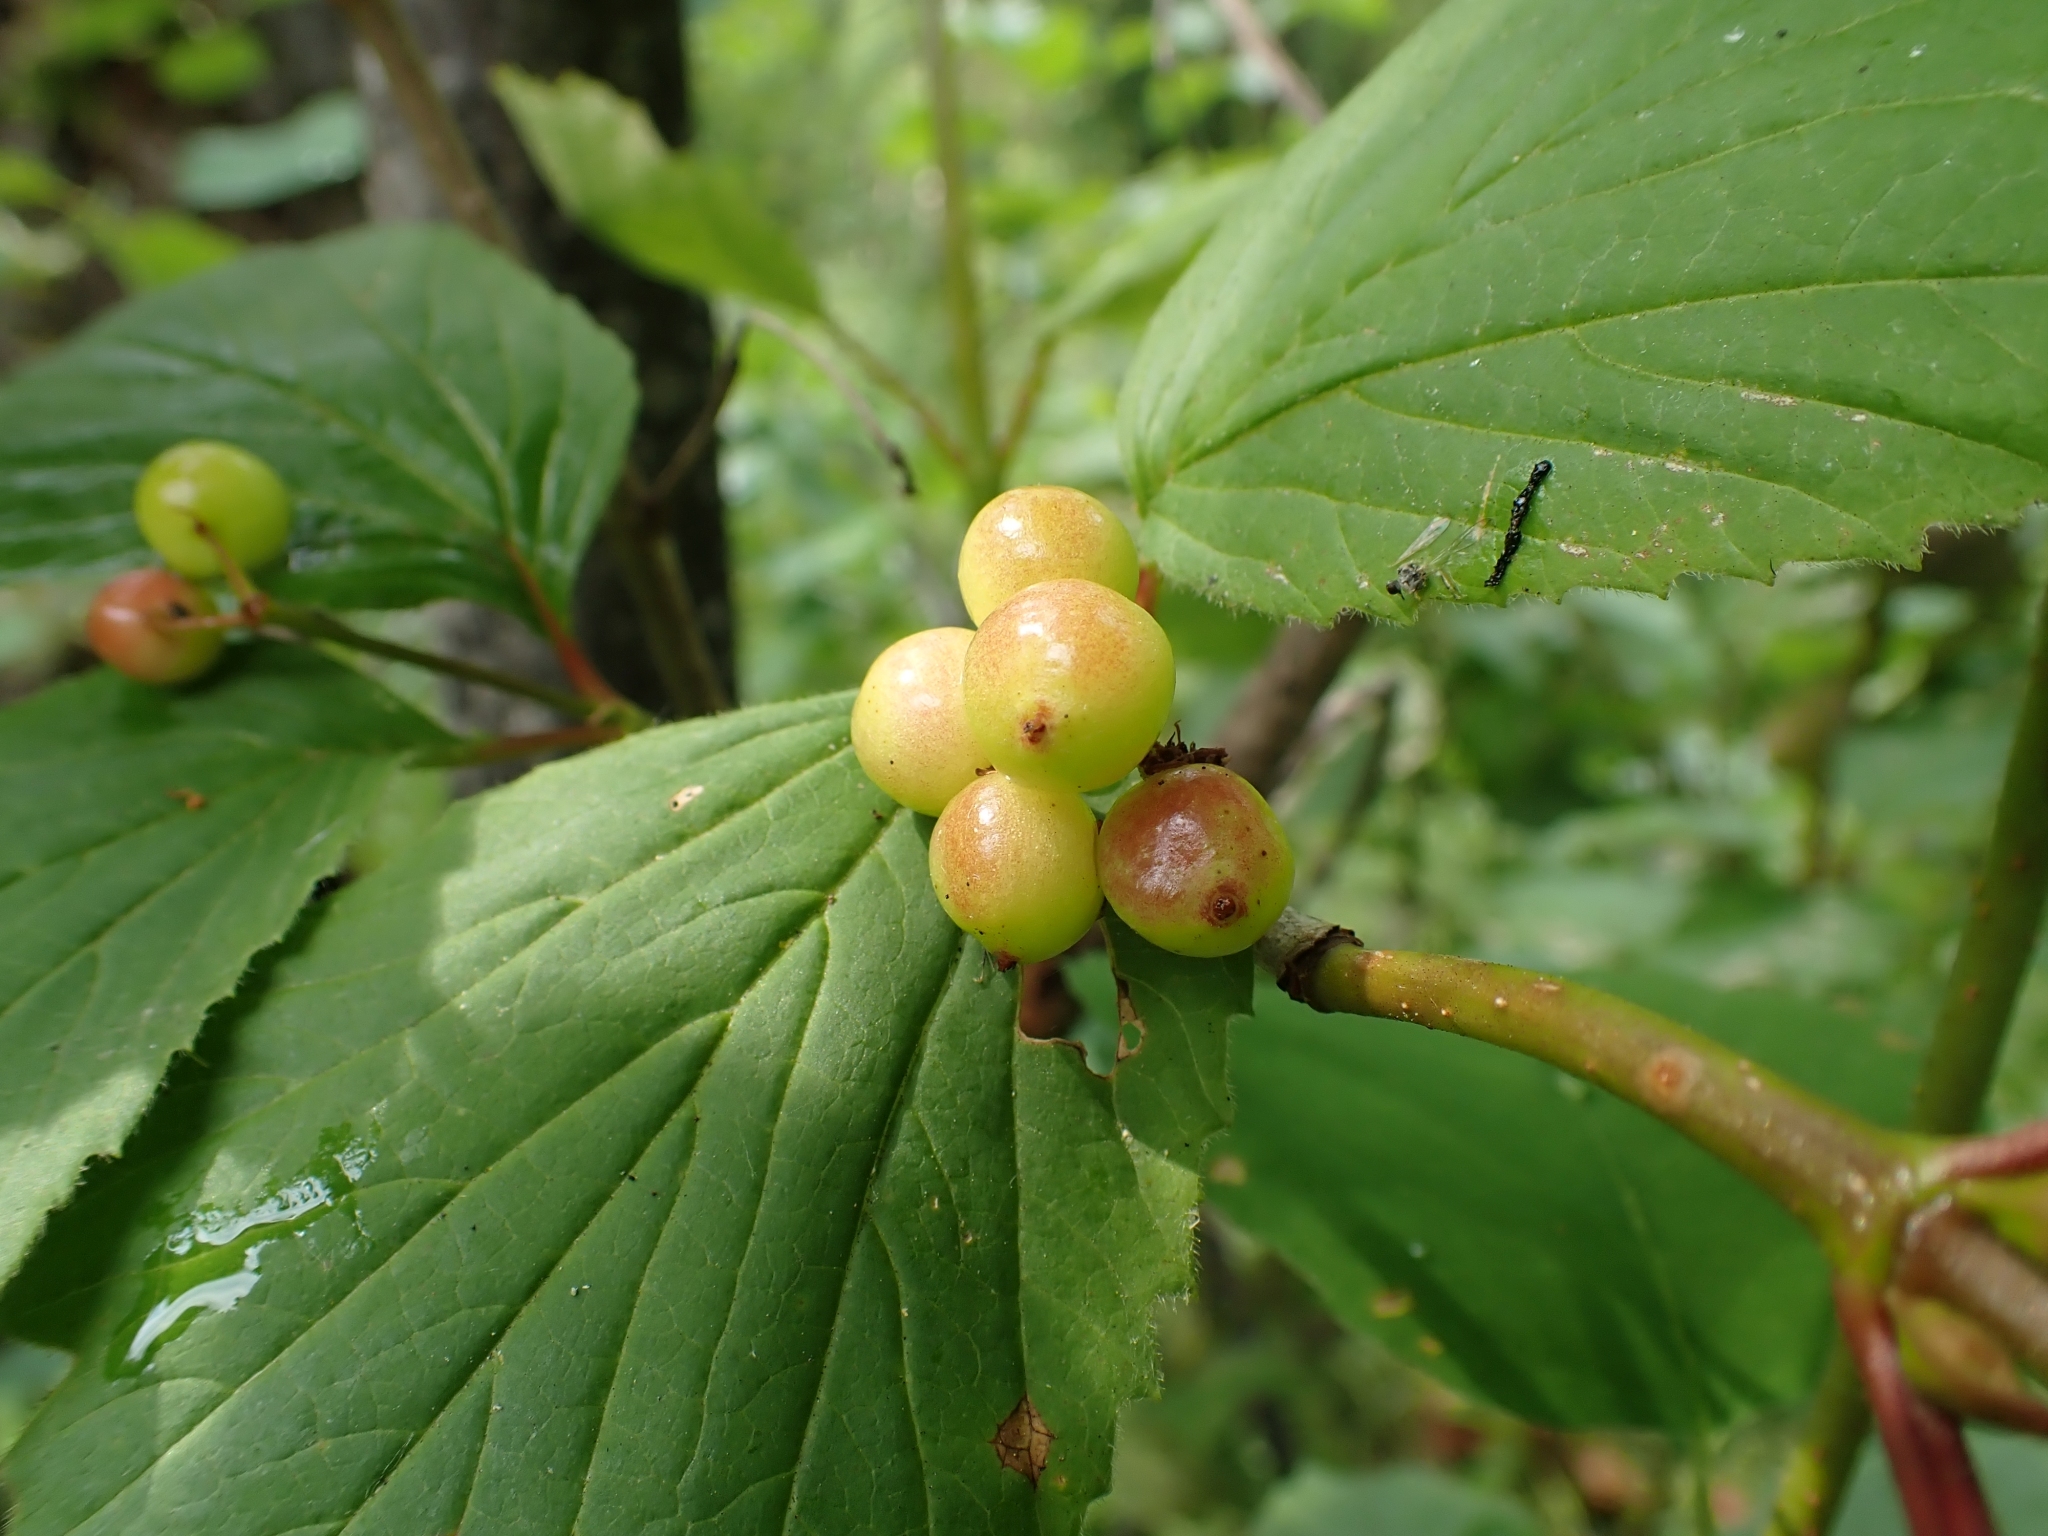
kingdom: Plantae
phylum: Tracheophyta
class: Magnoliopsida
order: Dipsacales
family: Viburnaceae
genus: Viburnum
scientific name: Viburnum edule
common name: Mooseberry
